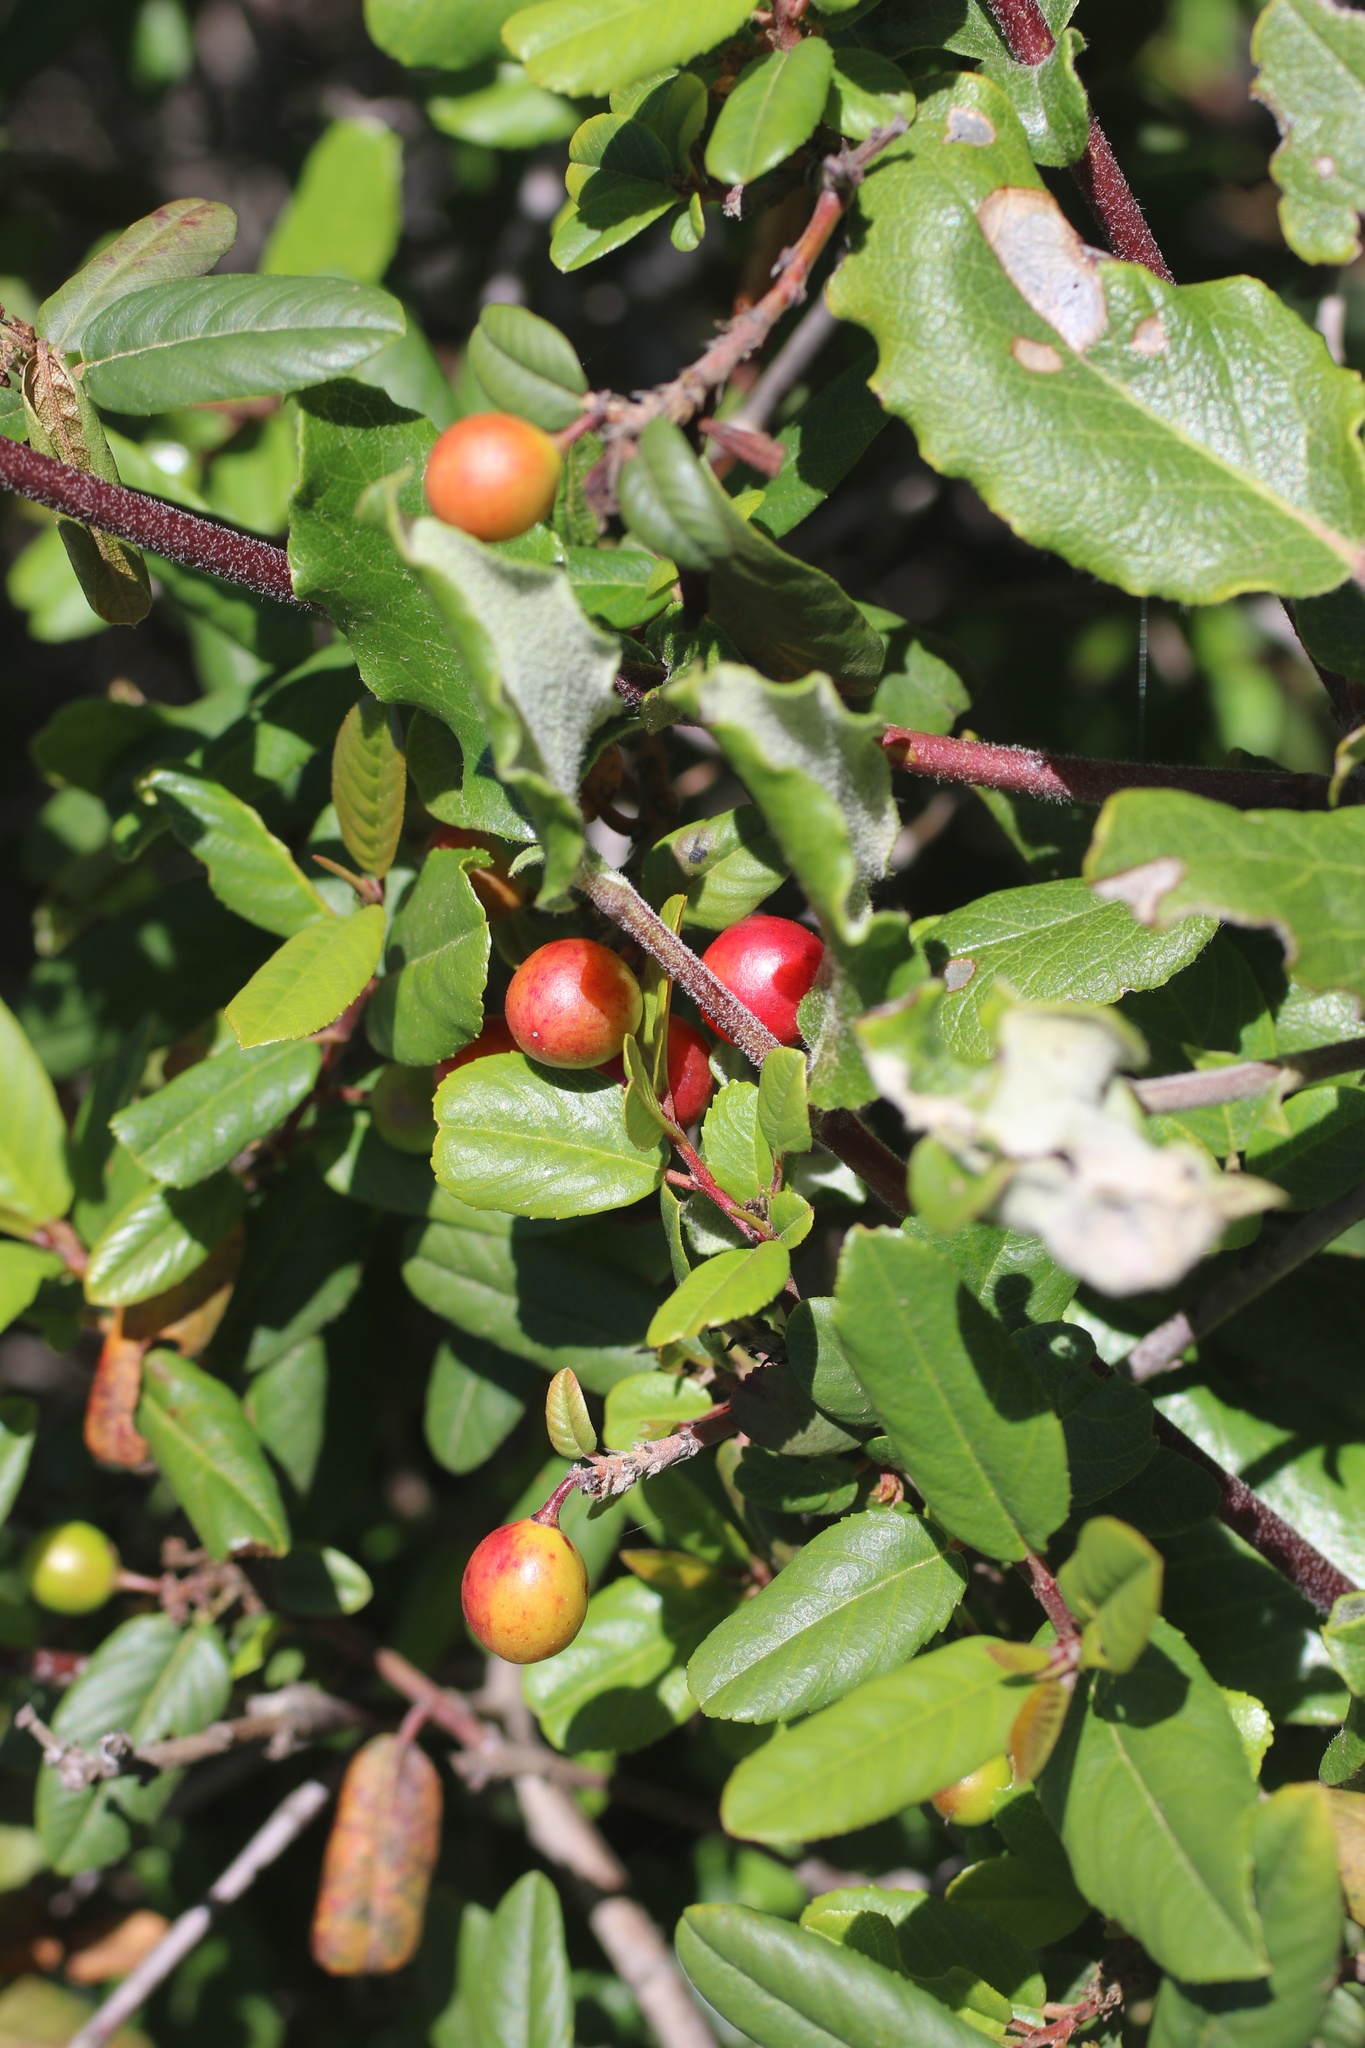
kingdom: Plantae
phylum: Tracheophyta
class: Magnoliopsida
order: Rosales
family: Rhamnaceae
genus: Frangula
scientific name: Frangula californica
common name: California buckthorn
